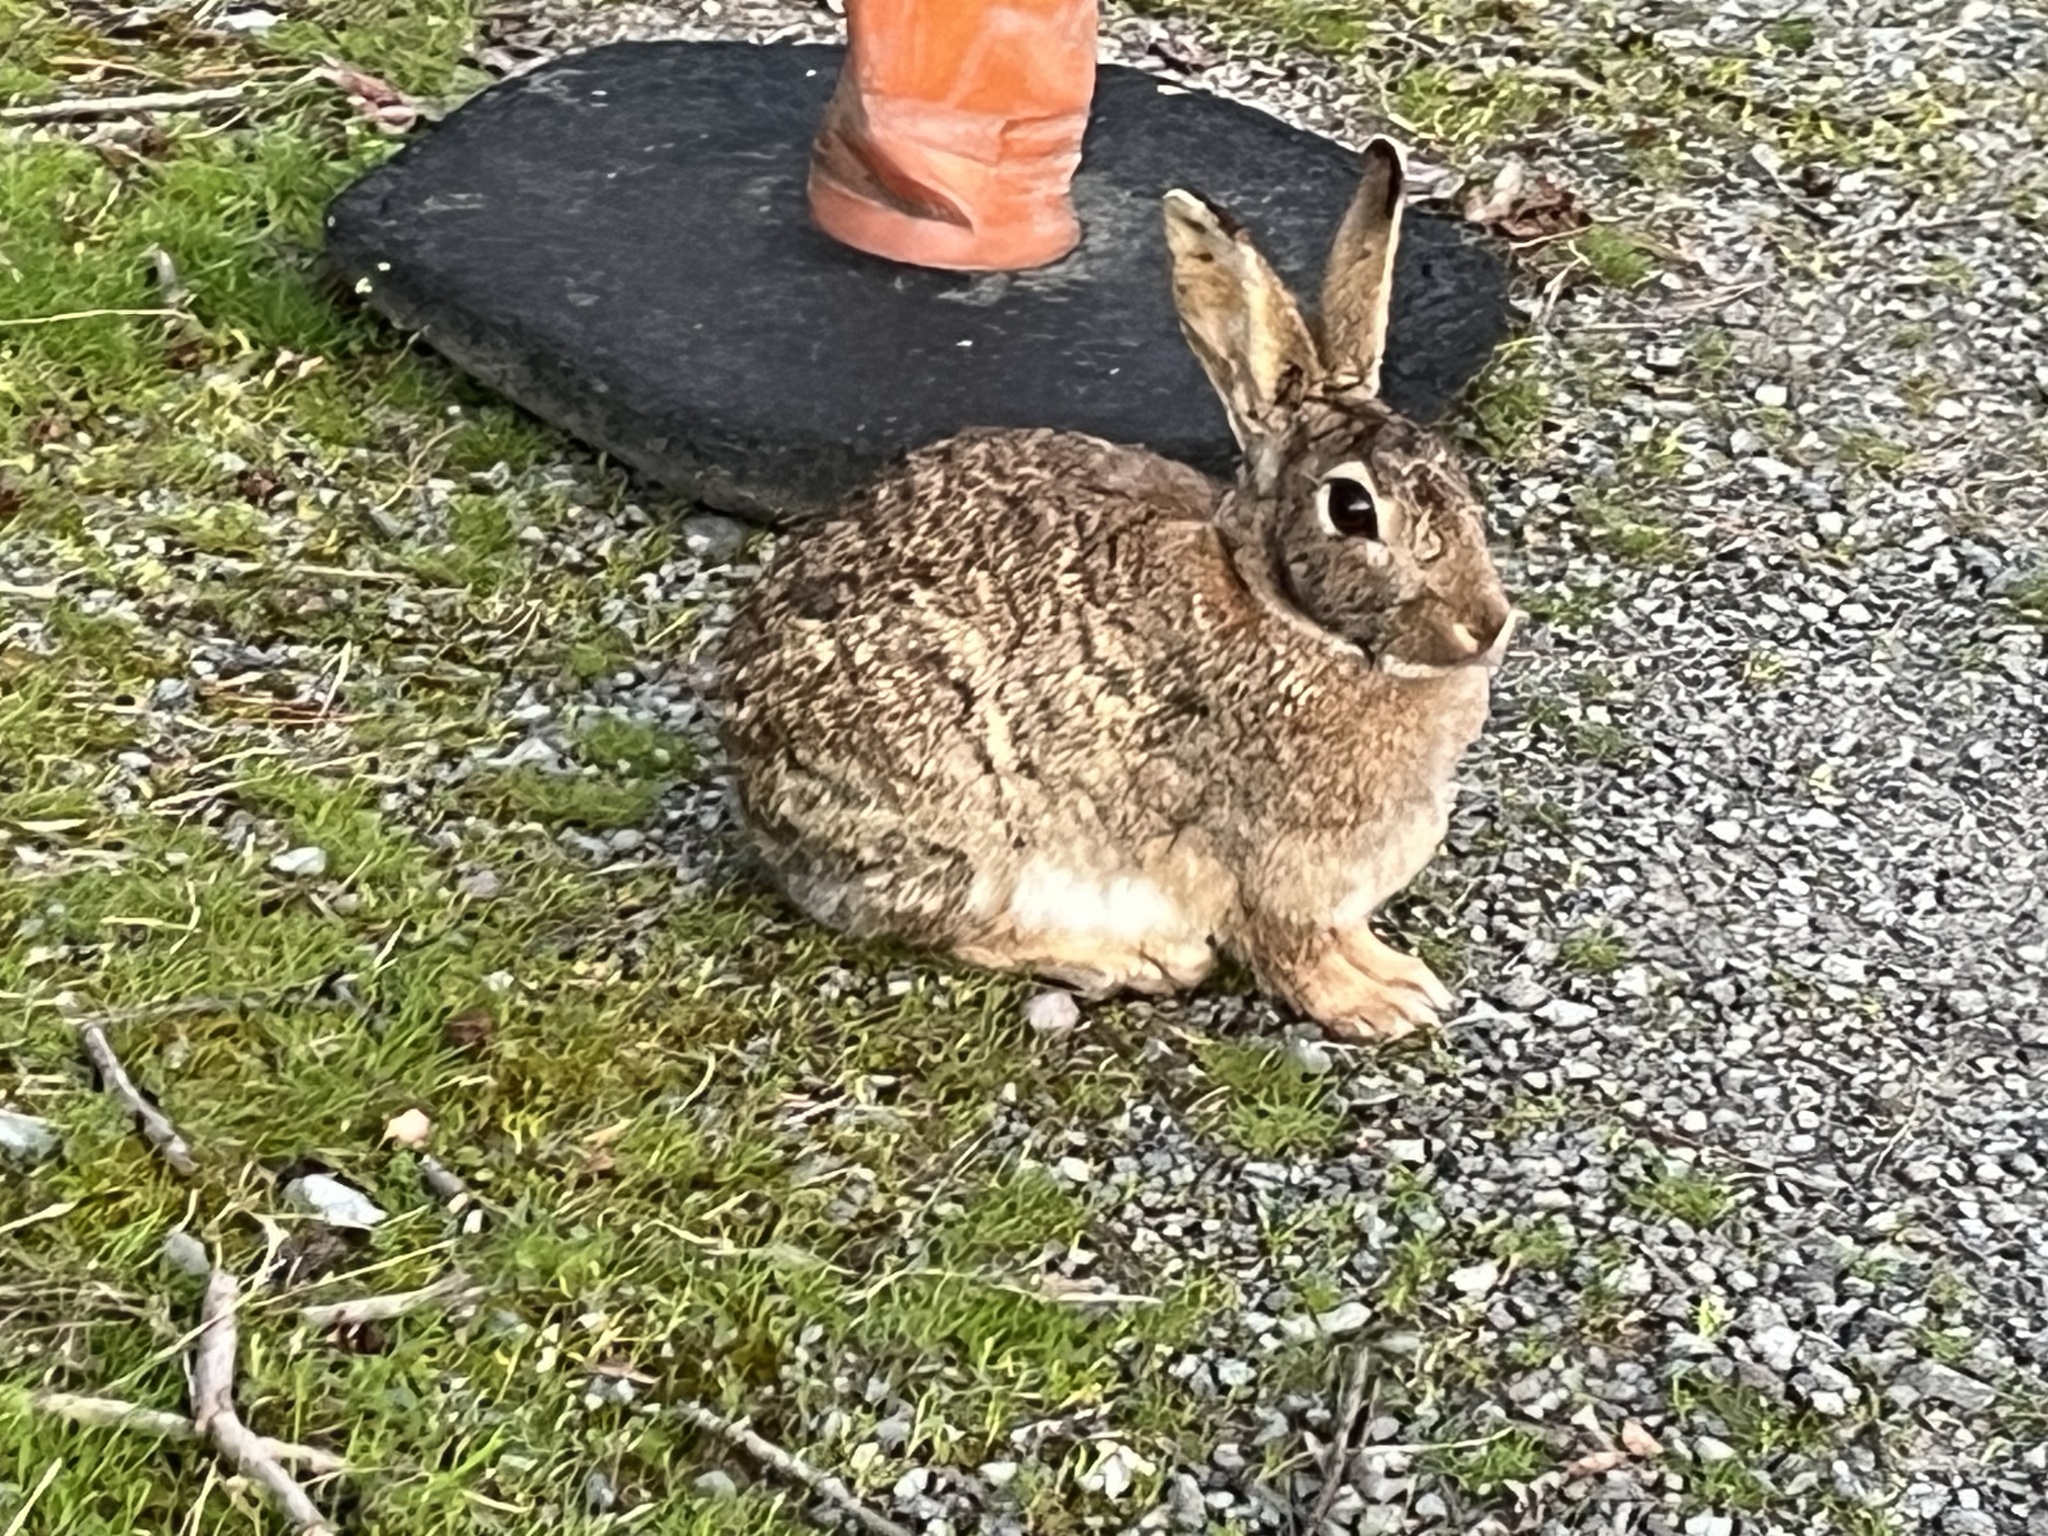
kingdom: Animalia
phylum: Chordata
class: Mammalia
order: Lagomorpha
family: Leporidae
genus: Oryctolagus
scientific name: Oryctolagus cuniculus
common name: European rabbit
